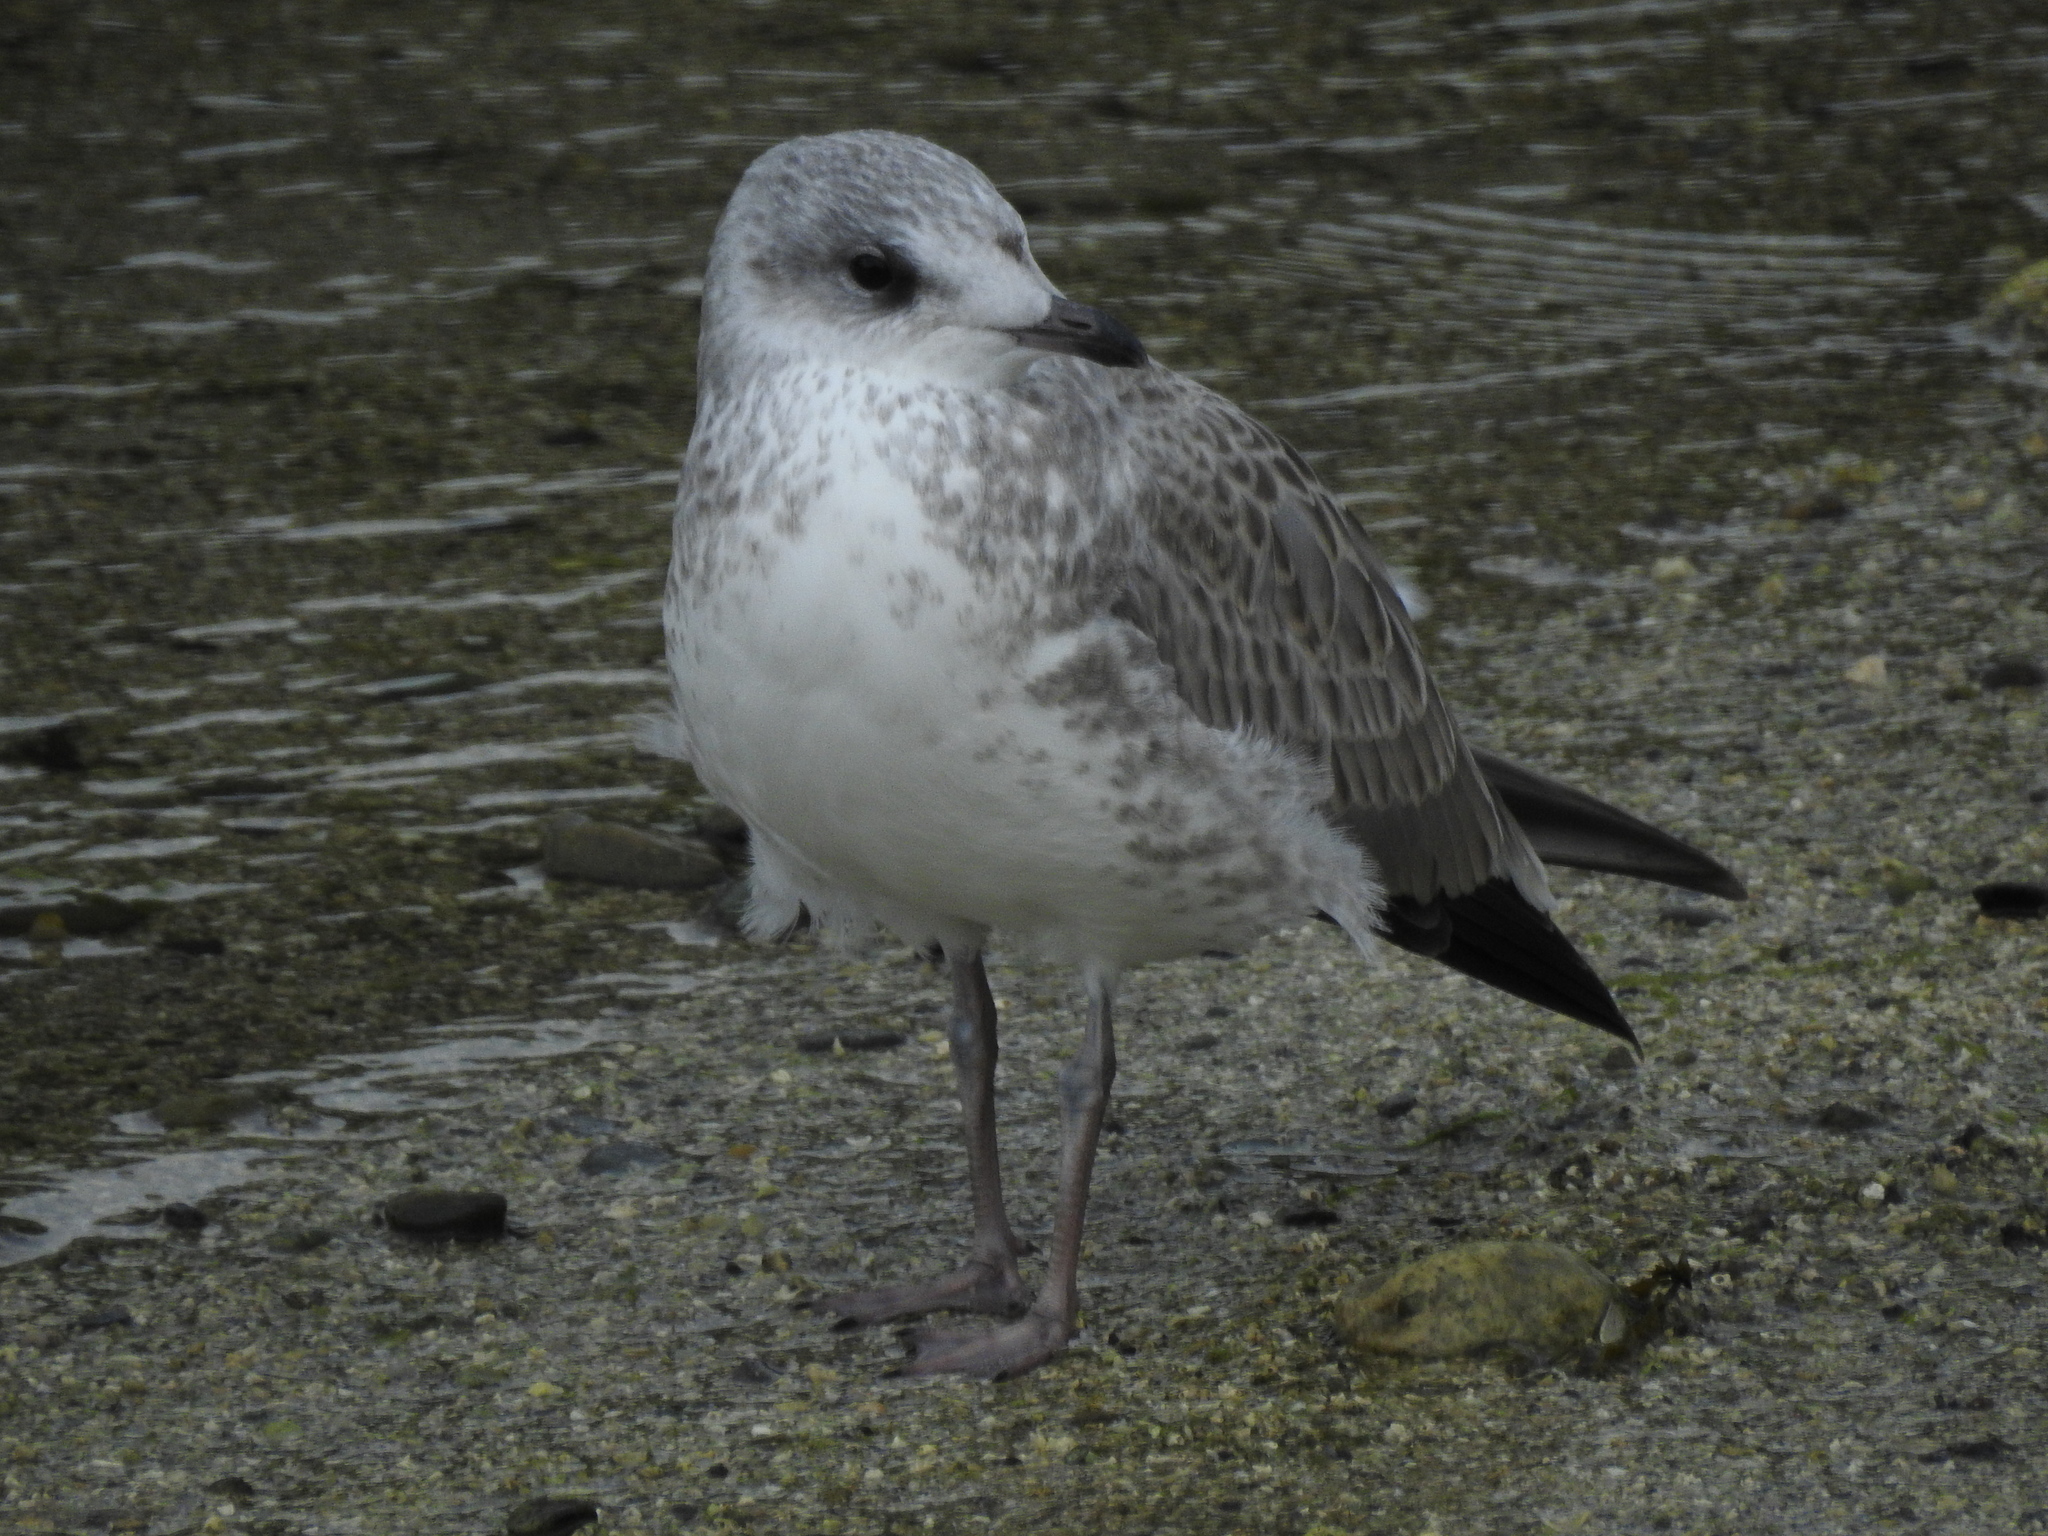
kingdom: Animalia
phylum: Chordata
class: Aves
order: Charadriiformes
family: Laridae
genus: Larus
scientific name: Larus canus
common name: Mew gull
